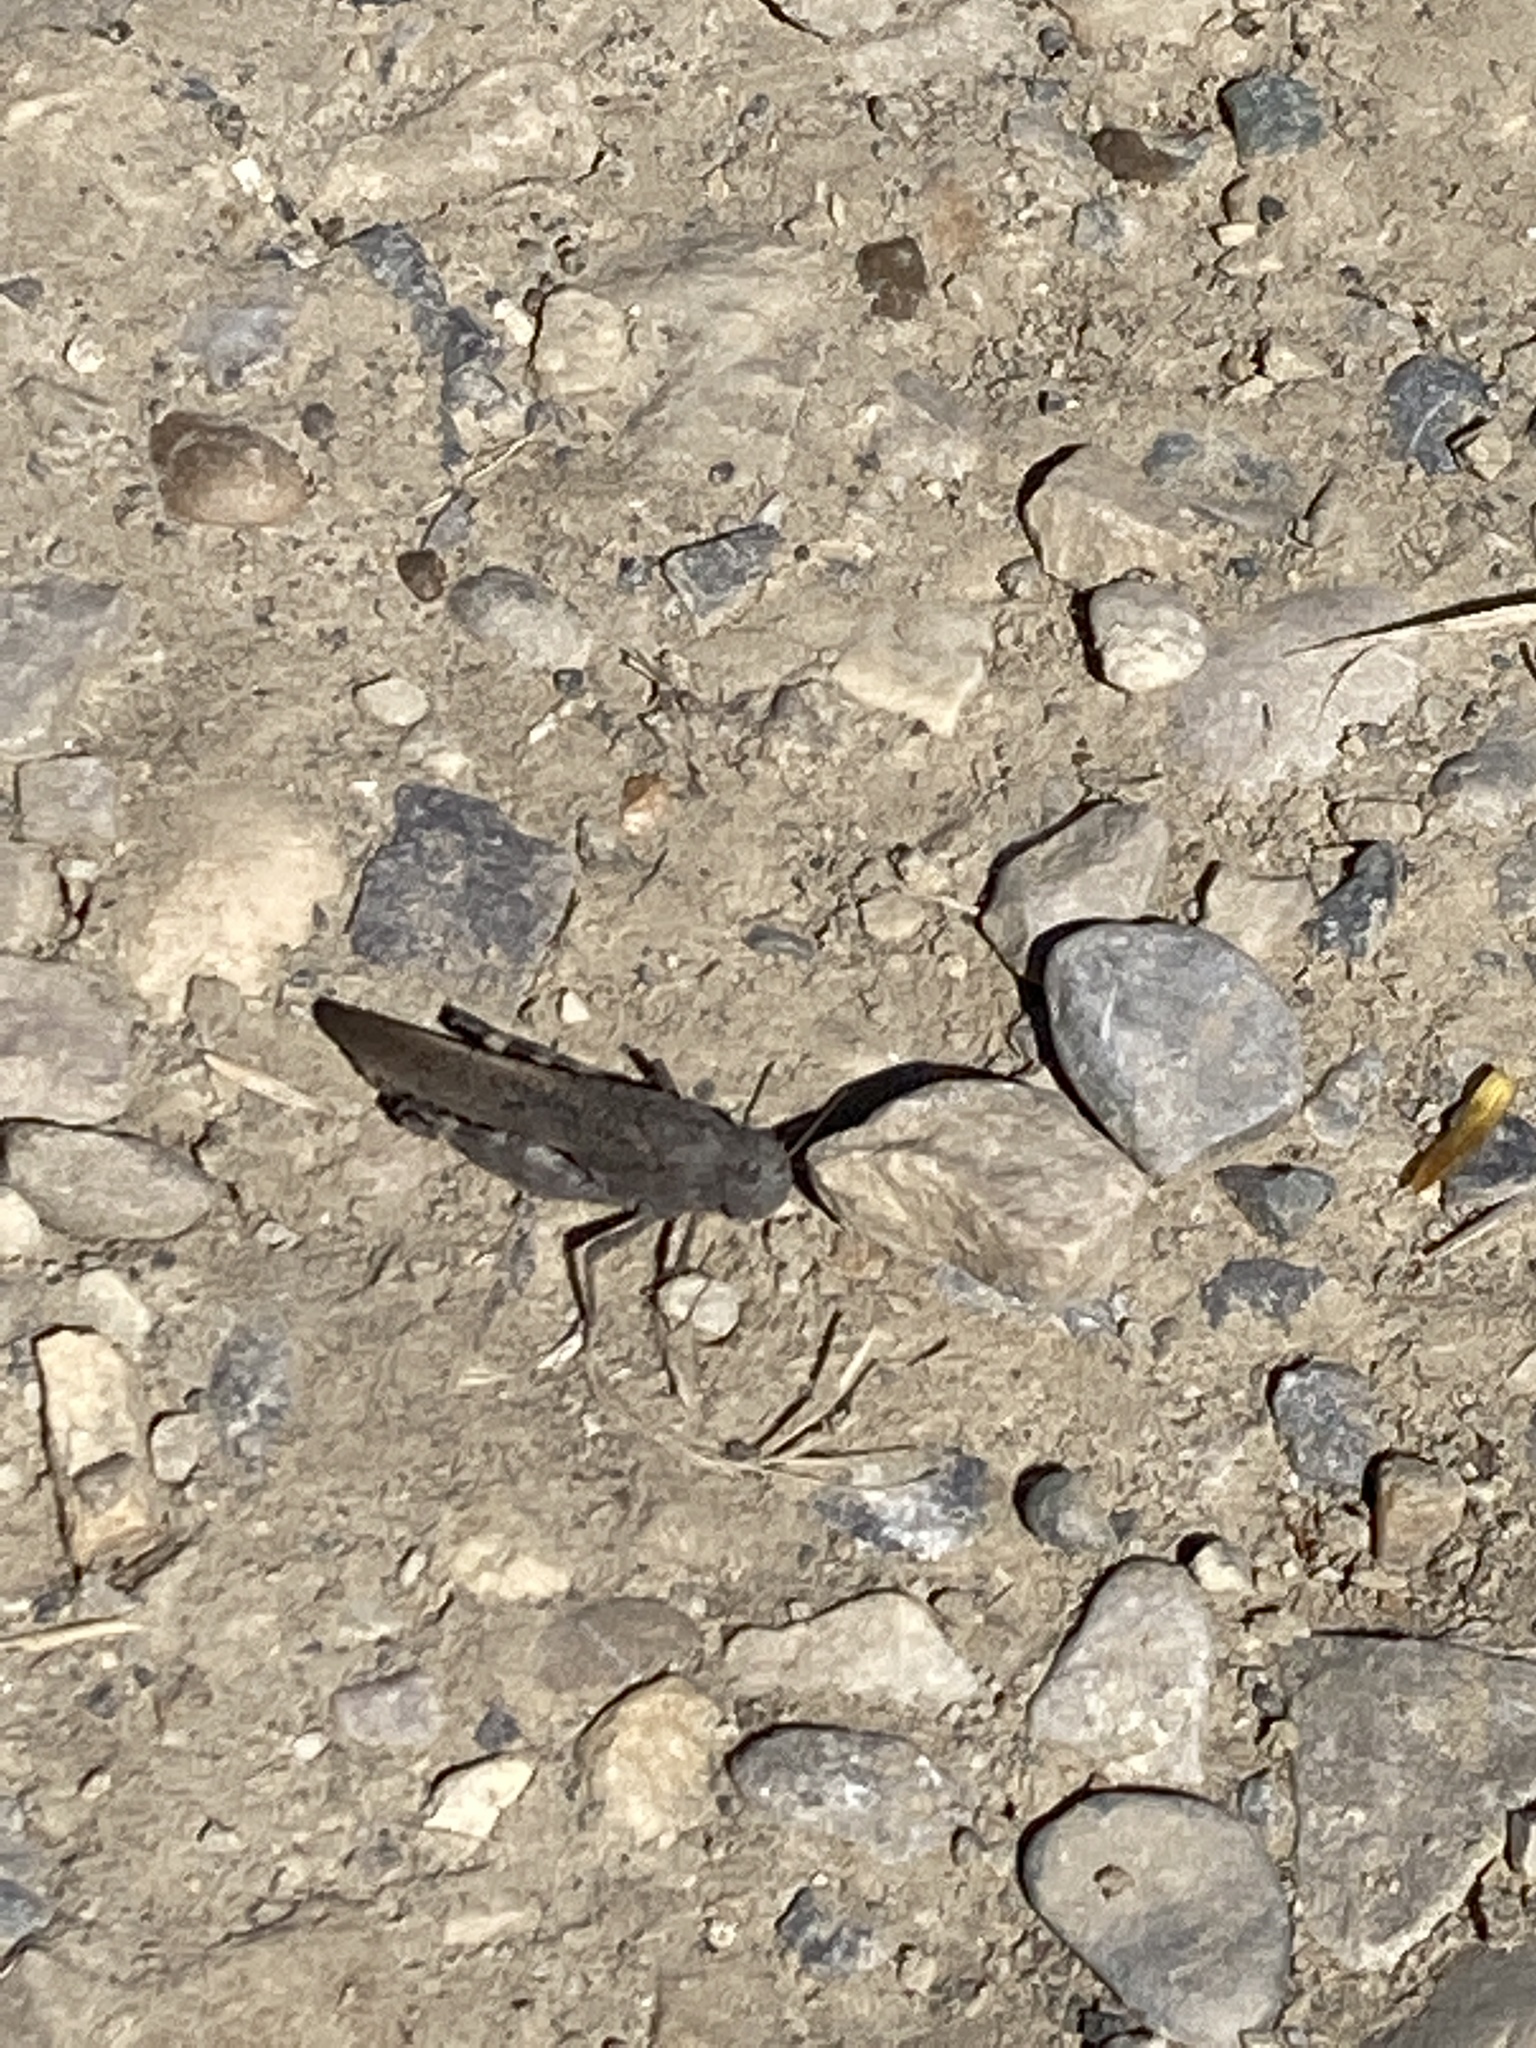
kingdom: Animalia
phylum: Arthropoda
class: Insecta
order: Orthoptera
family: Acrididae
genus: Arphia
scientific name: Arphia conspersa
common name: Speckle-winged rangeland grasshopper
